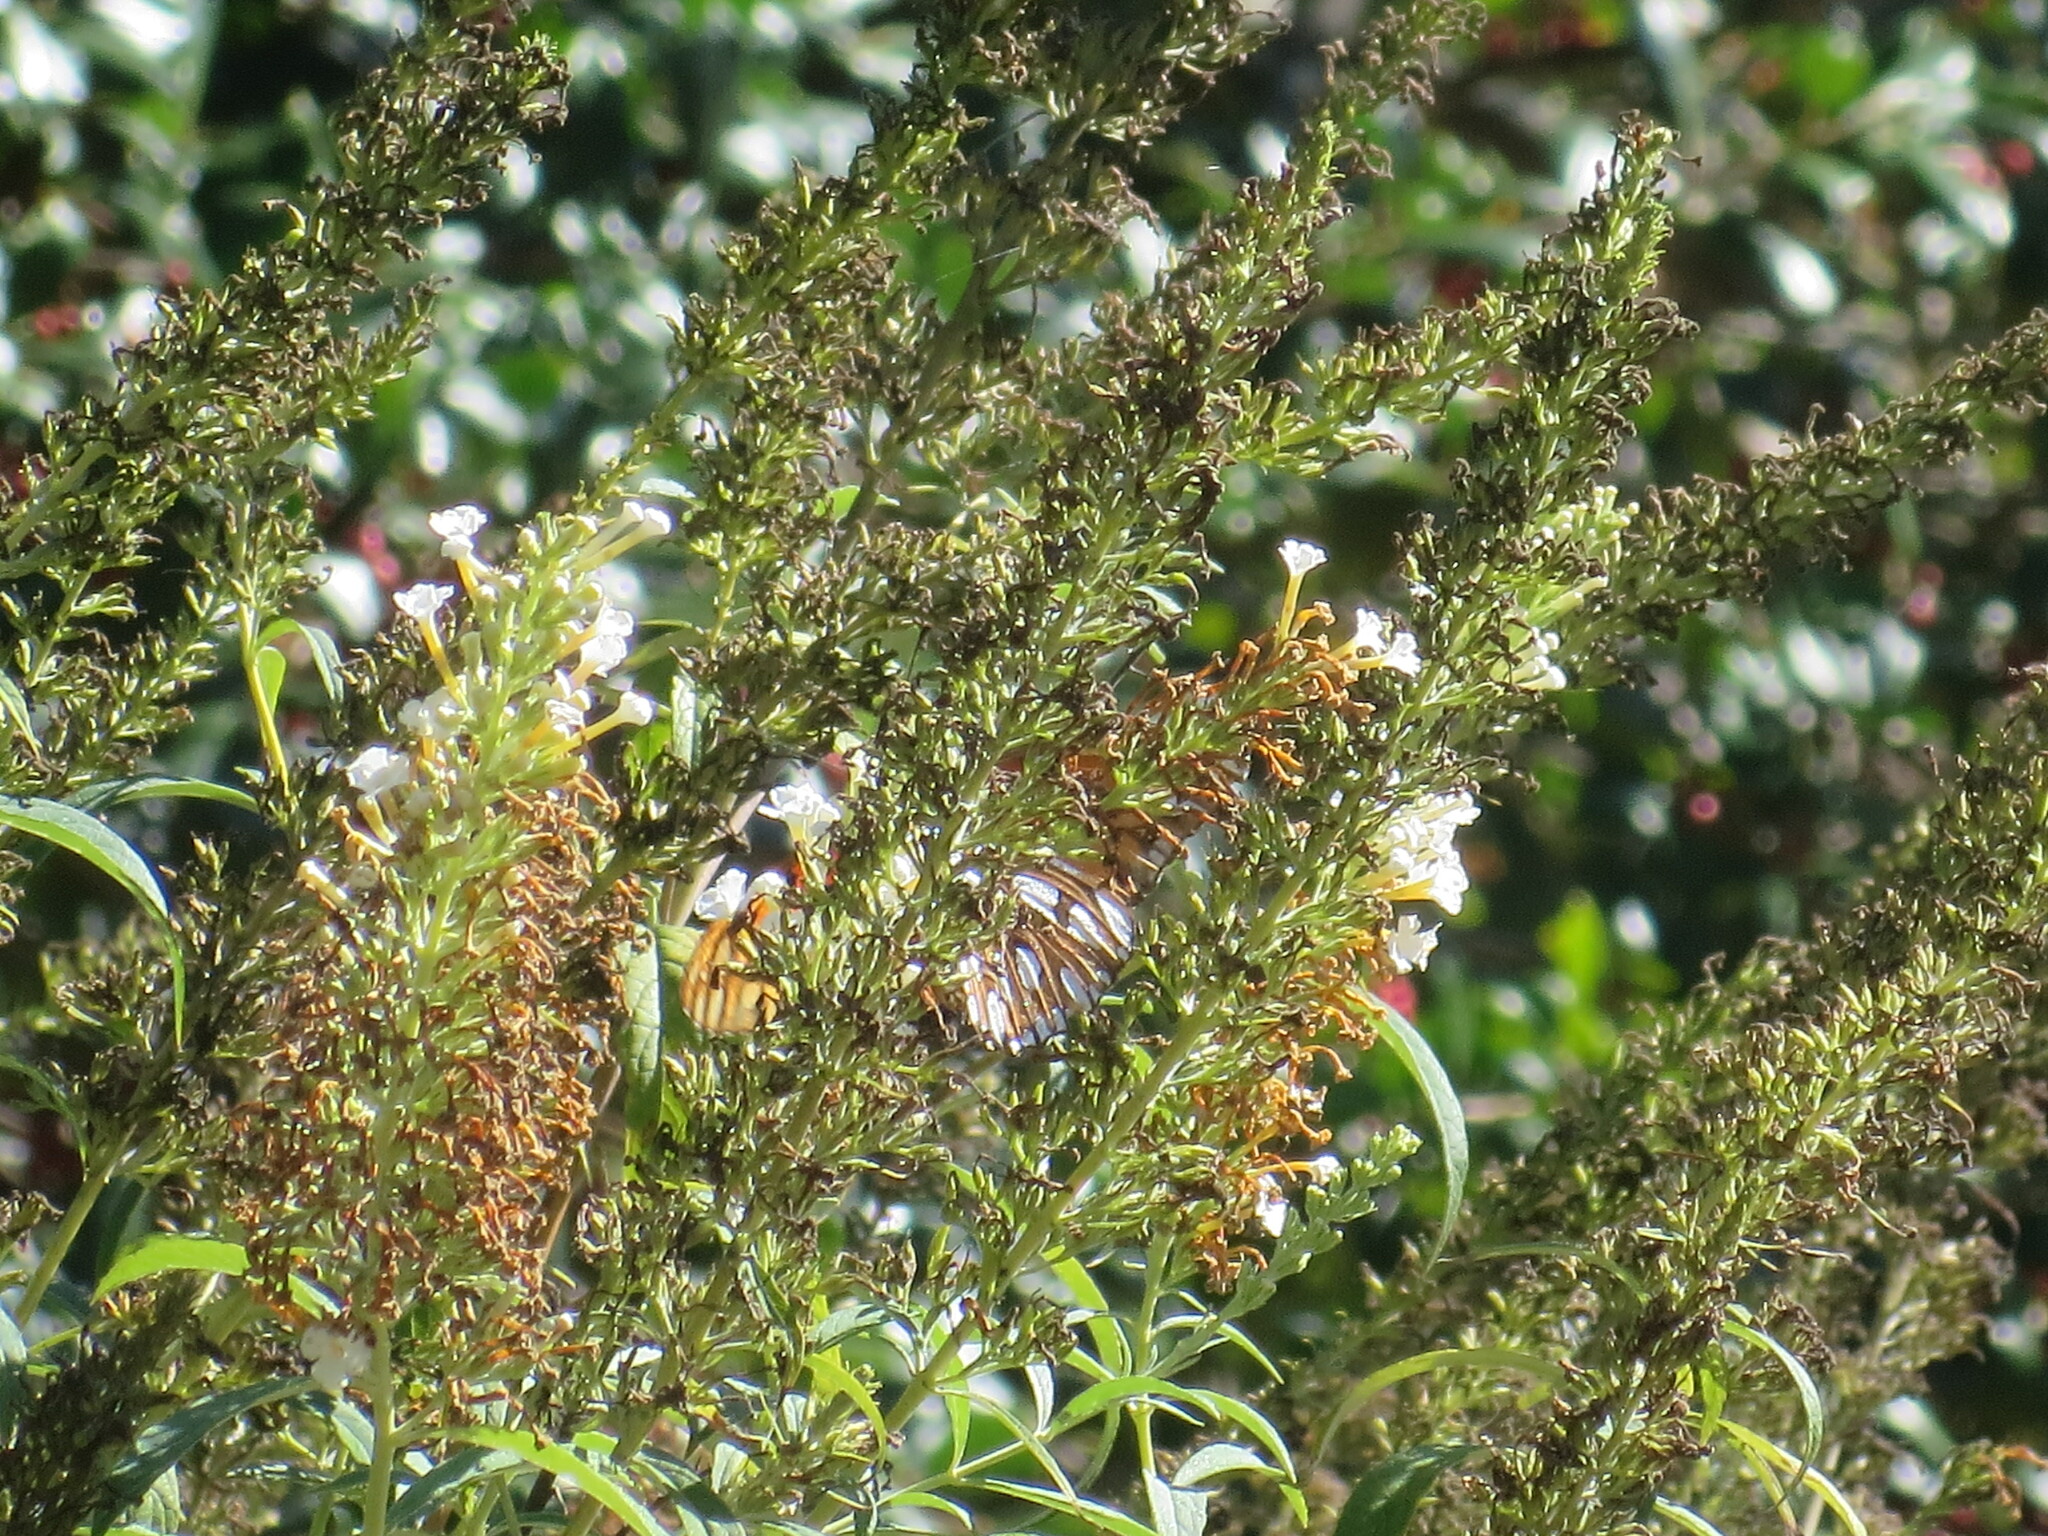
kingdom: Animalia
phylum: Arthropoda
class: Insecta
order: Lepidoptera
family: Nymphalidae
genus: Dione
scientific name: Dione vanillae
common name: Gulf fritillary
